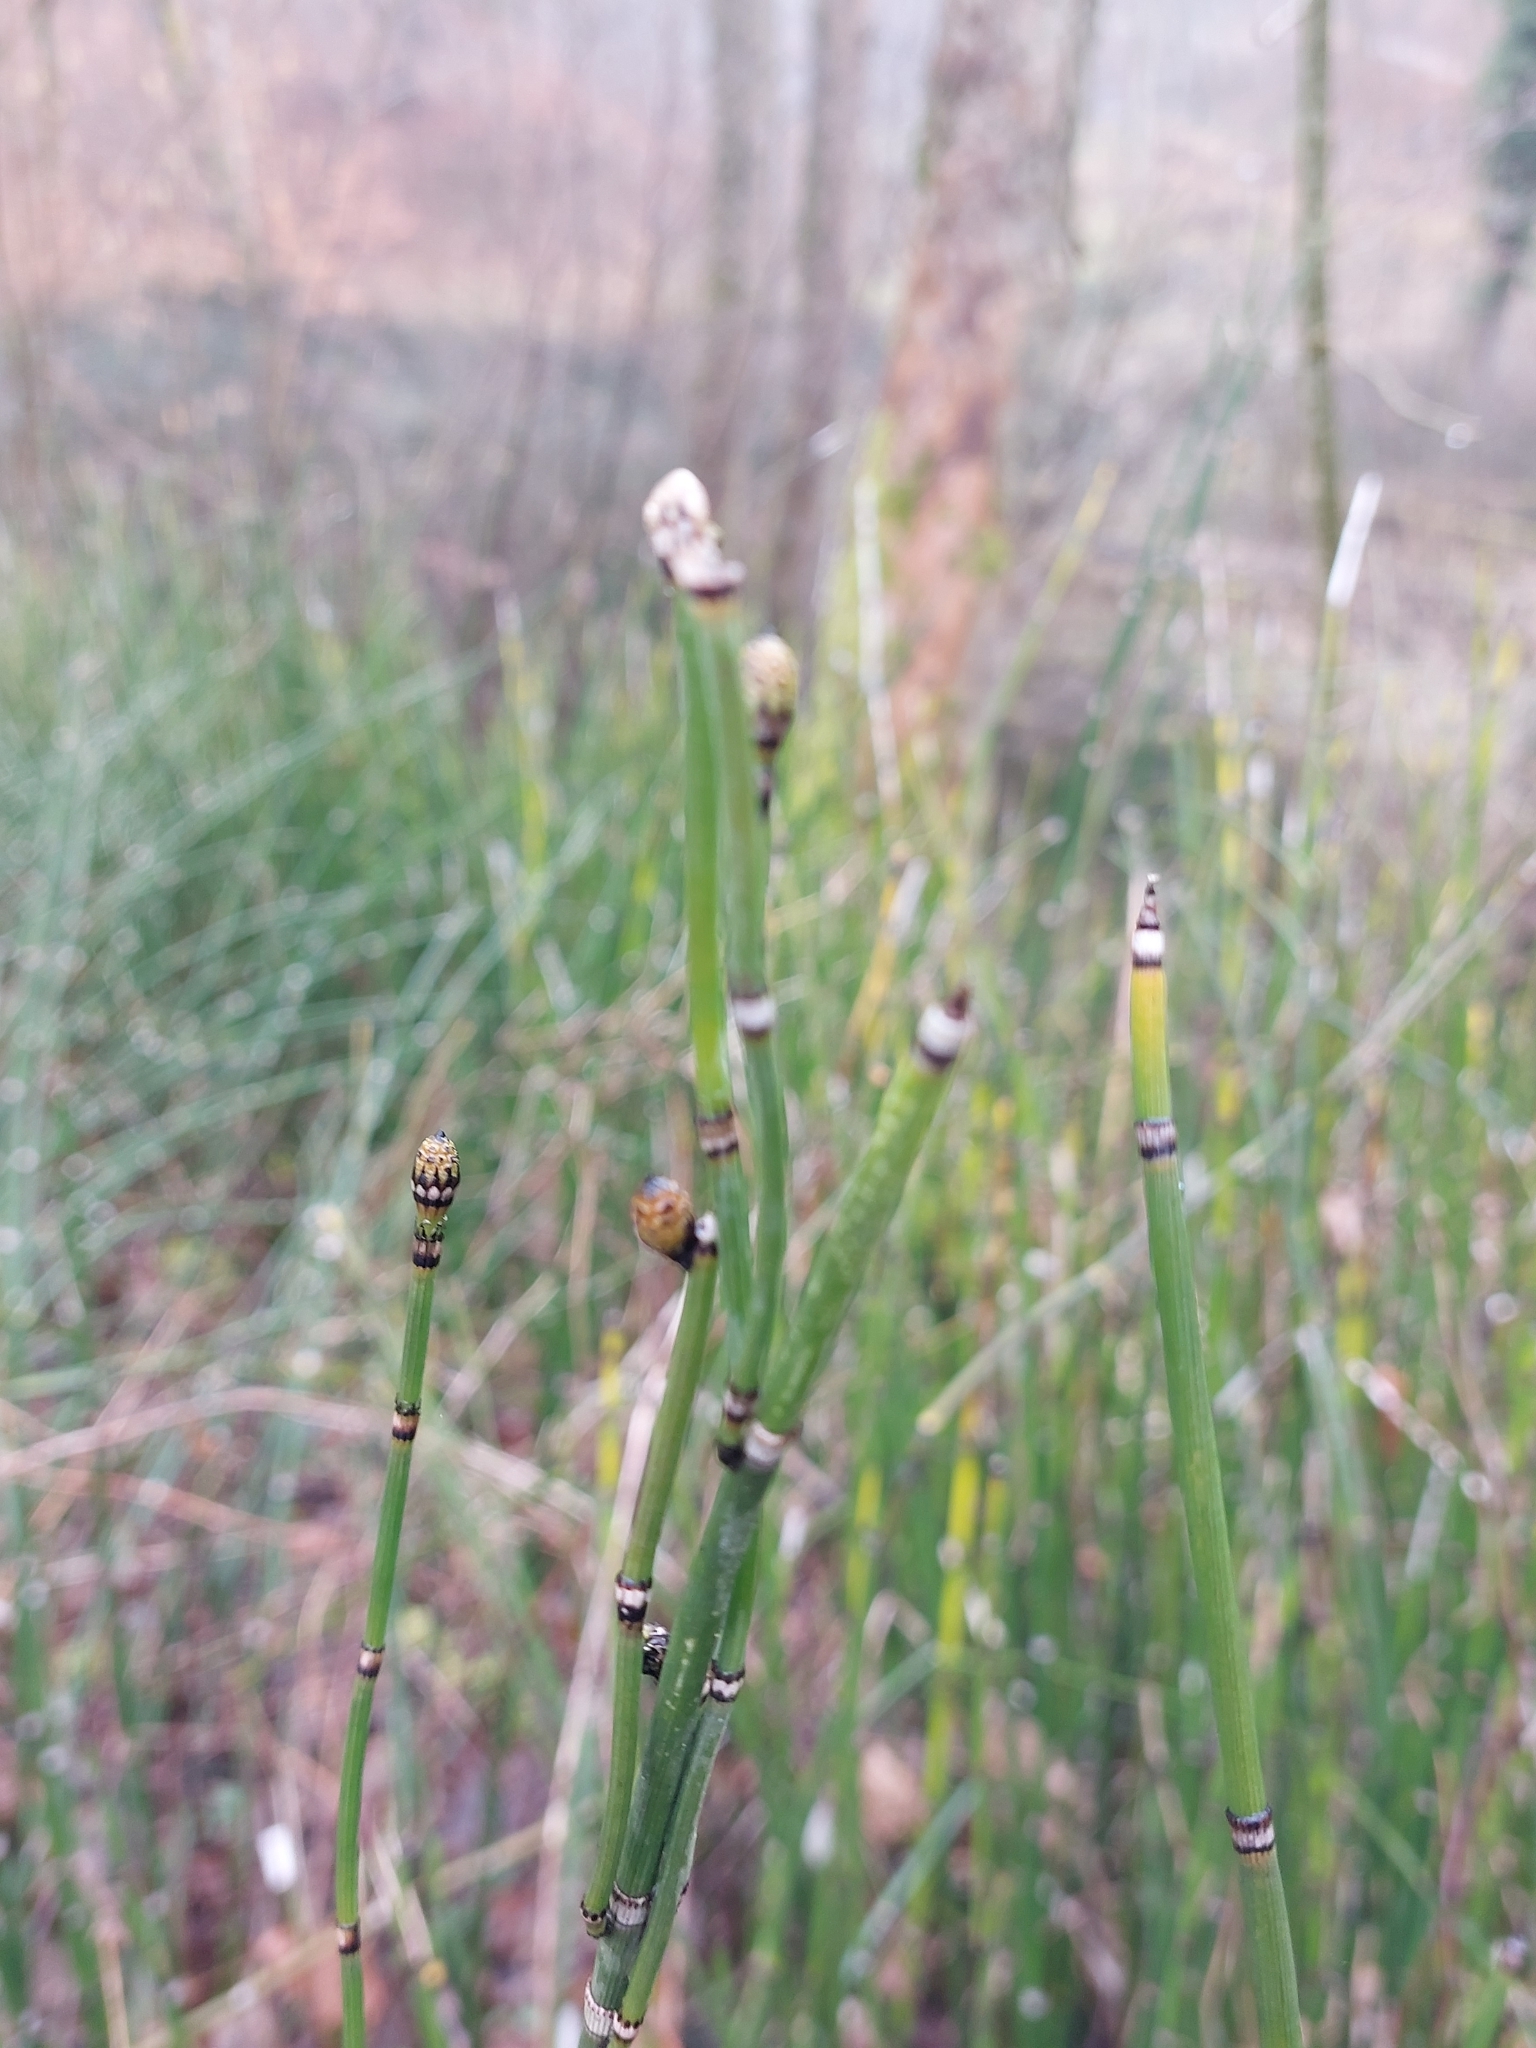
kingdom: Plantae
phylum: Tracheophyta
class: Polypodiopsida
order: Equisetales
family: Equisetaceae
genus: Equisetum
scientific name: Equisetum hyemale
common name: Rough horsetail
